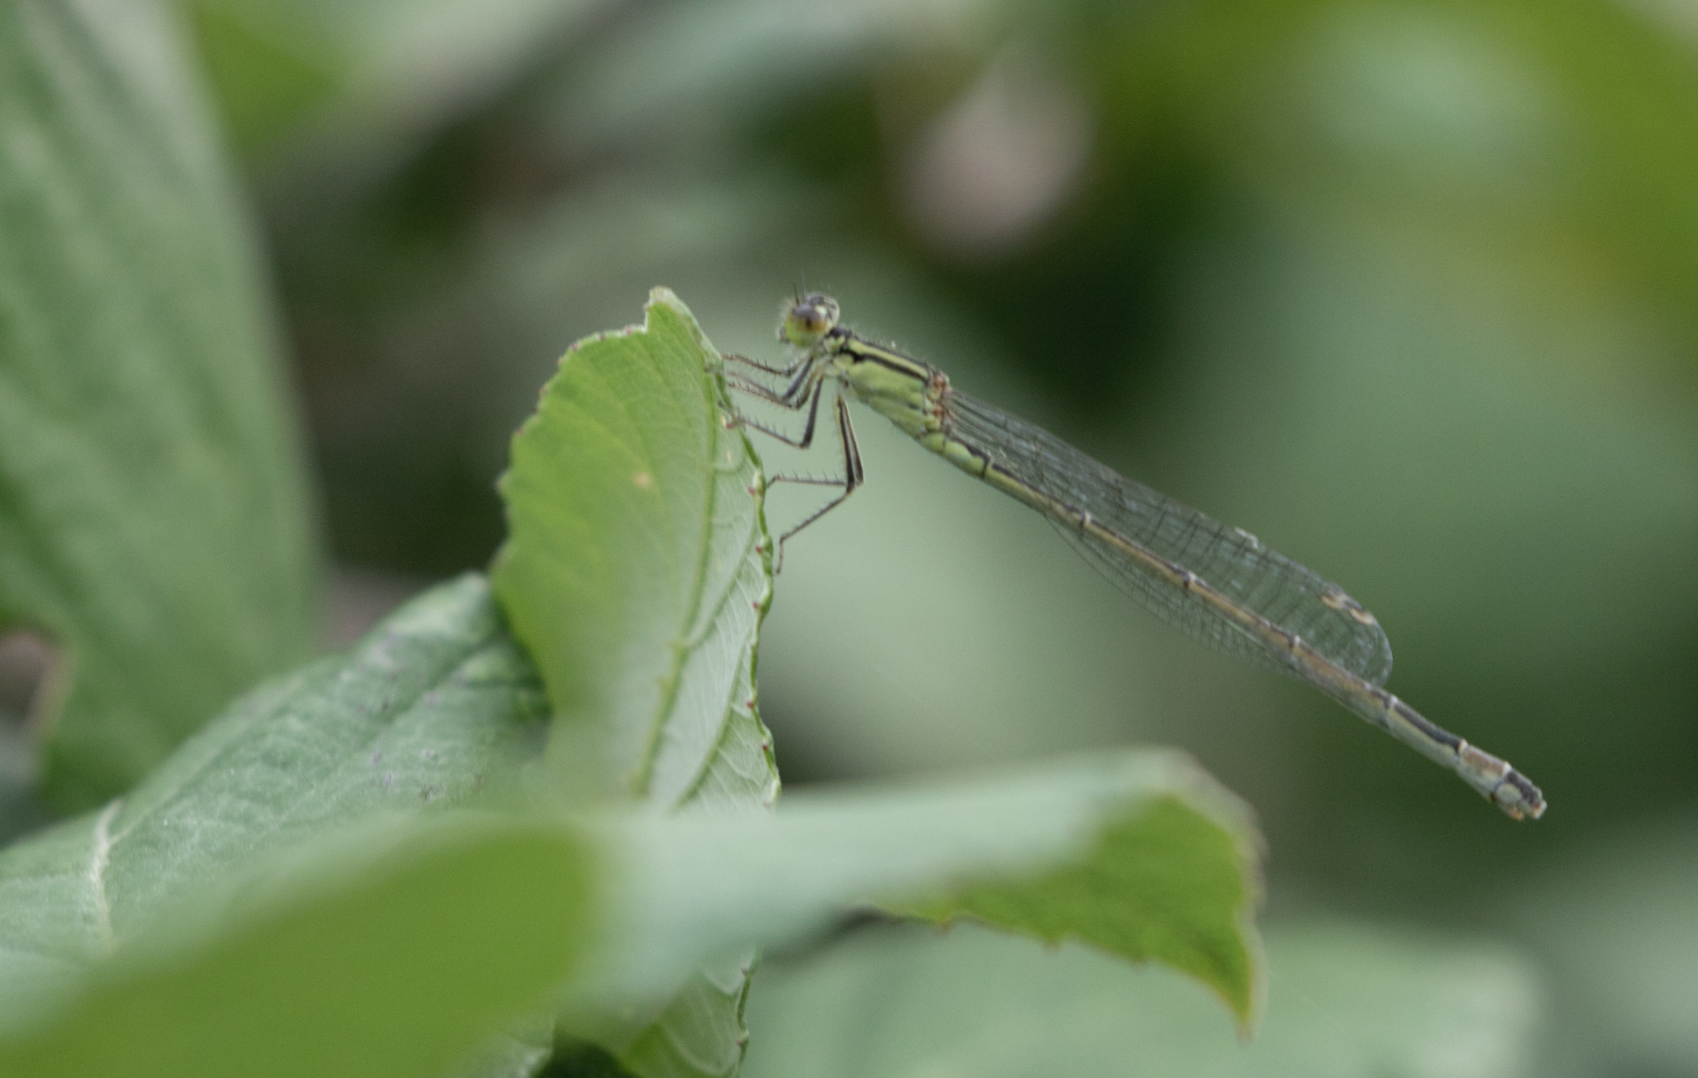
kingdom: Animalia
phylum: Arthropoda
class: Insecta
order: Odonata
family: Coenagrionidae
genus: Ischnura
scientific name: Ischnura elegans
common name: Blue-tailed damselfly
